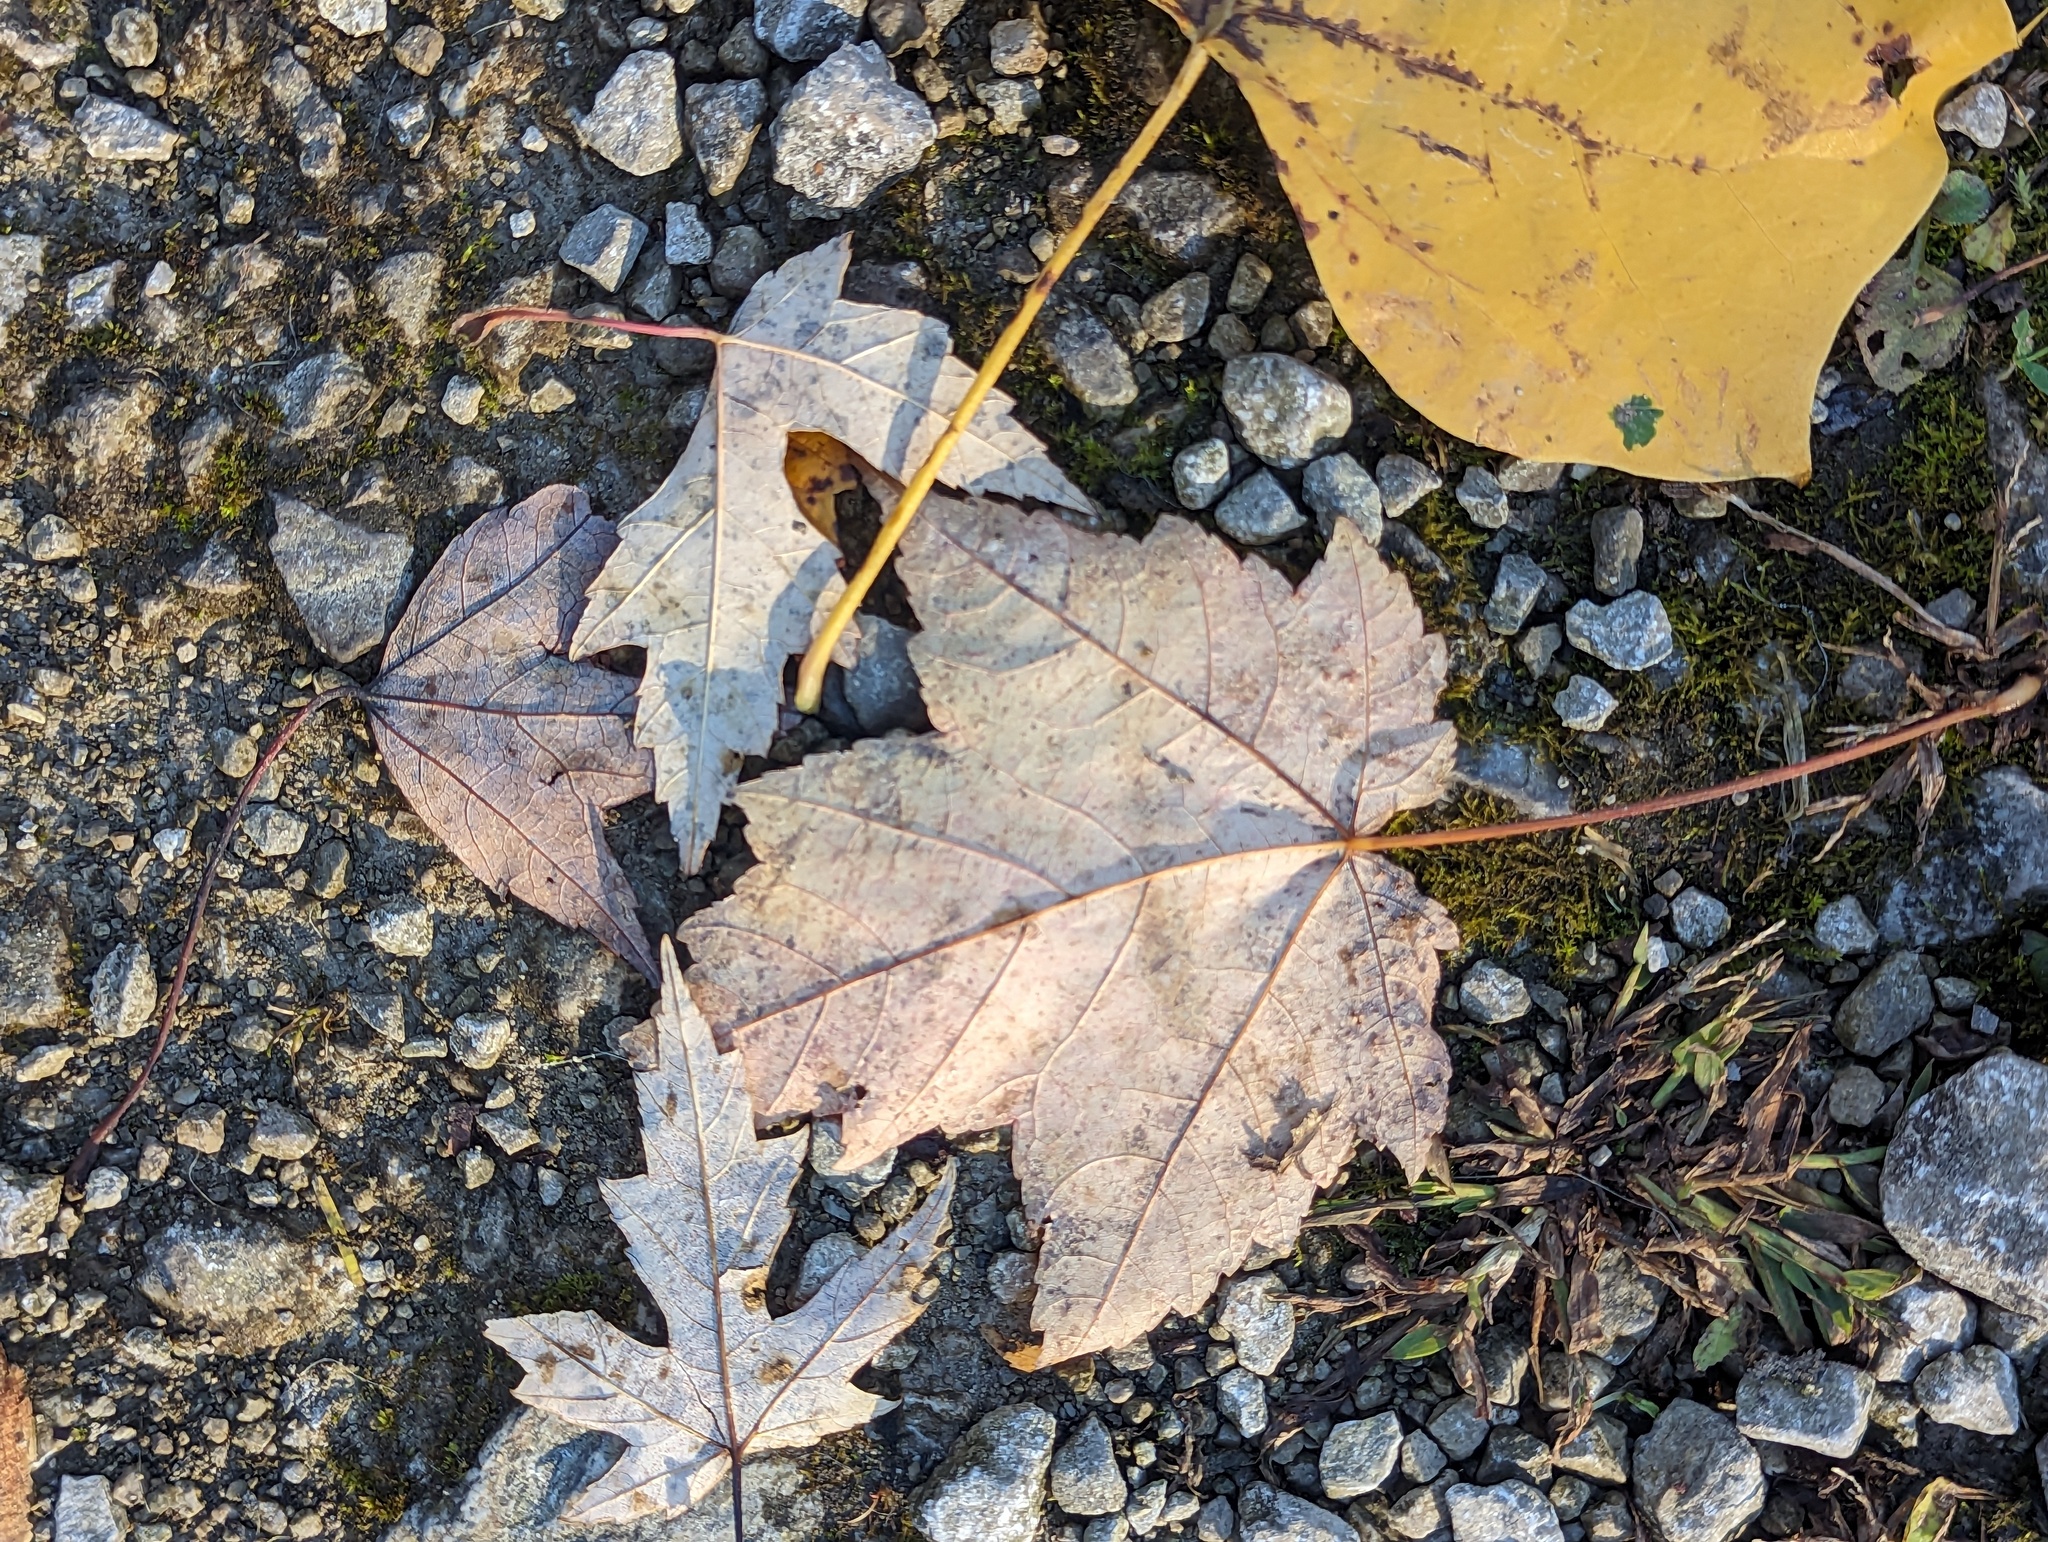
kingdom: Plantae
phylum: Tracheophyta
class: Magnoliopsida
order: Sapindales
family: Sapindaceae
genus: Acer
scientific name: Acer rubrum
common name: Red maple
